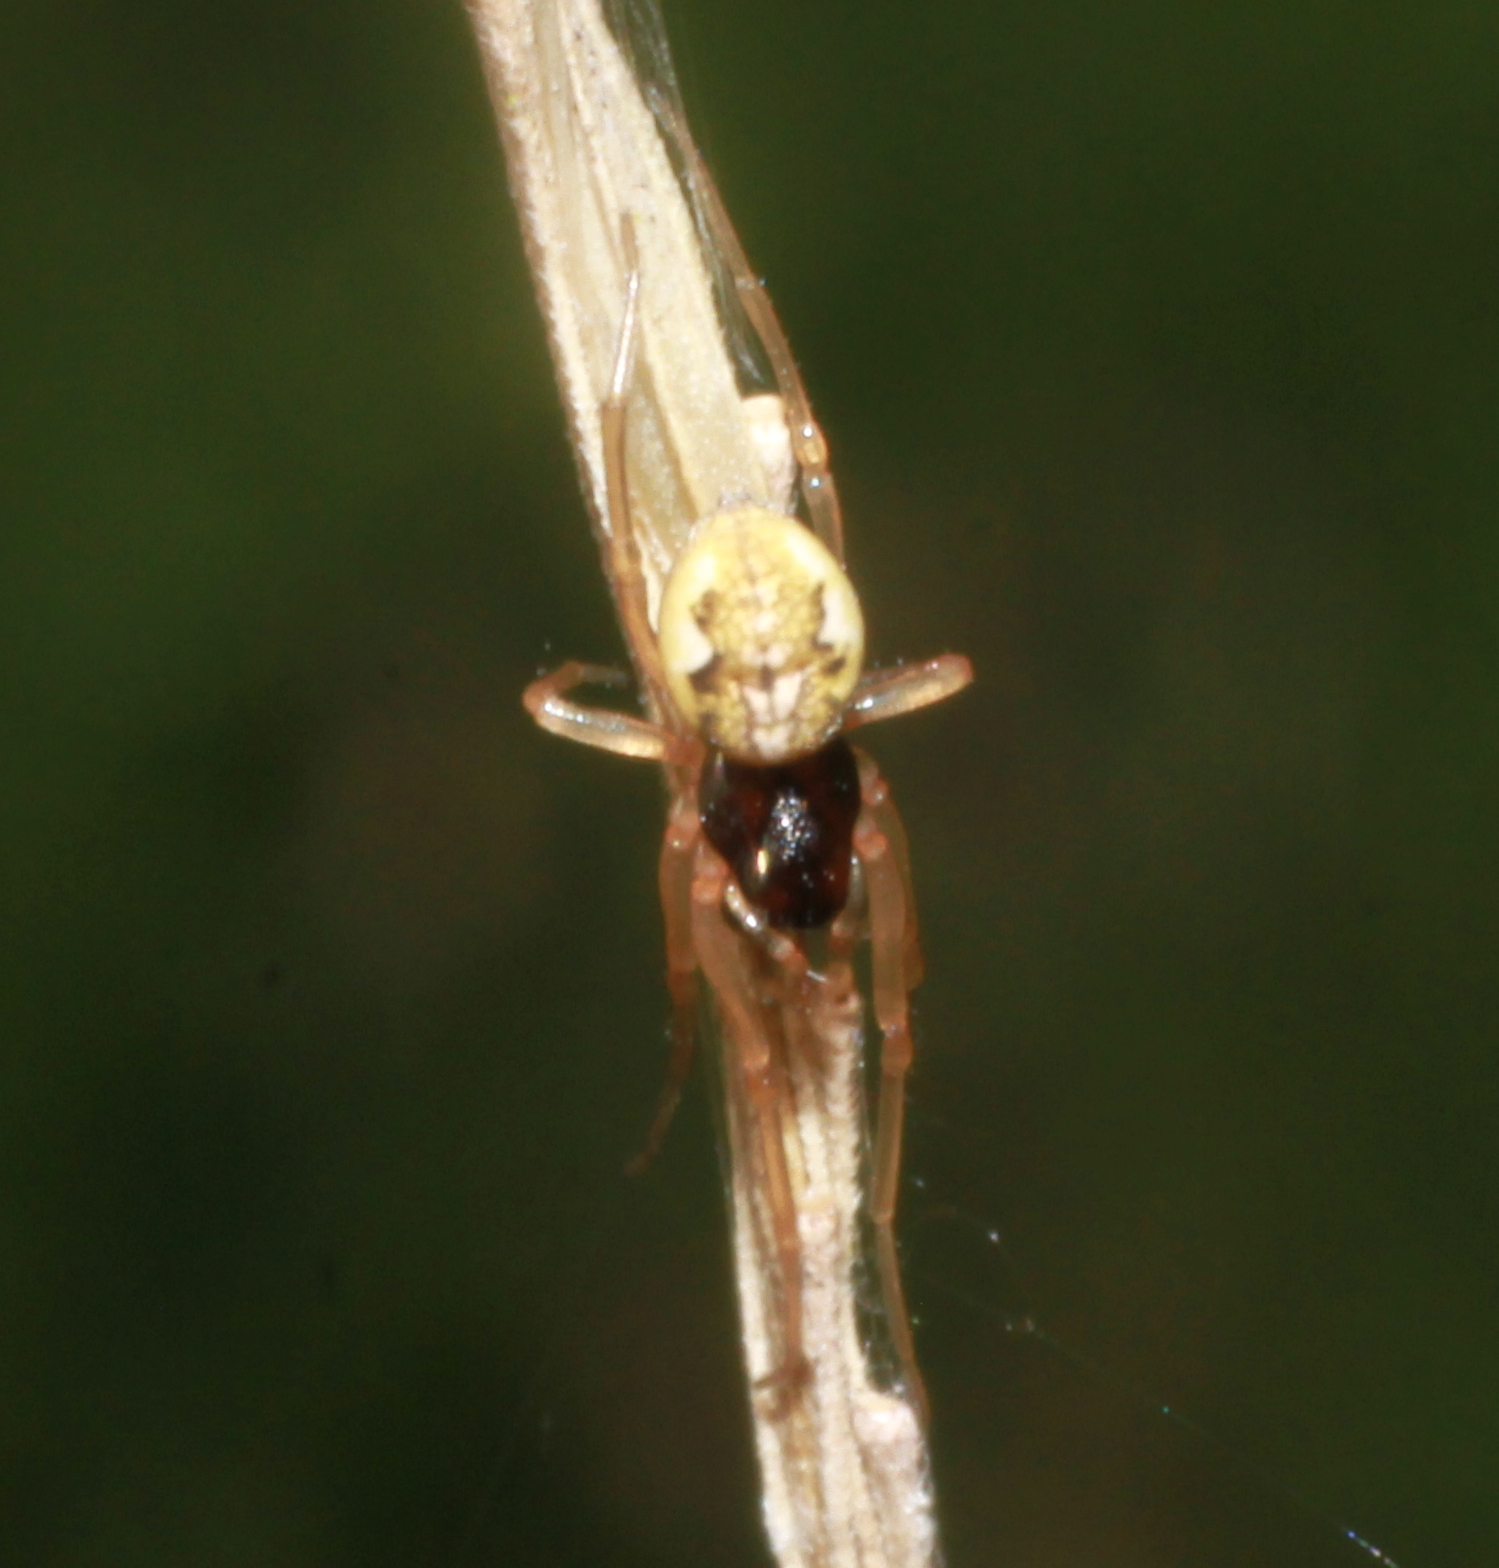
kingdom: Animalia
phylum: Arthropoda
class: Arachnida
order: Araneae
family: Tetragnathidae
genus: Pachygnatha
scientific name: Pachygnatha degeeri
